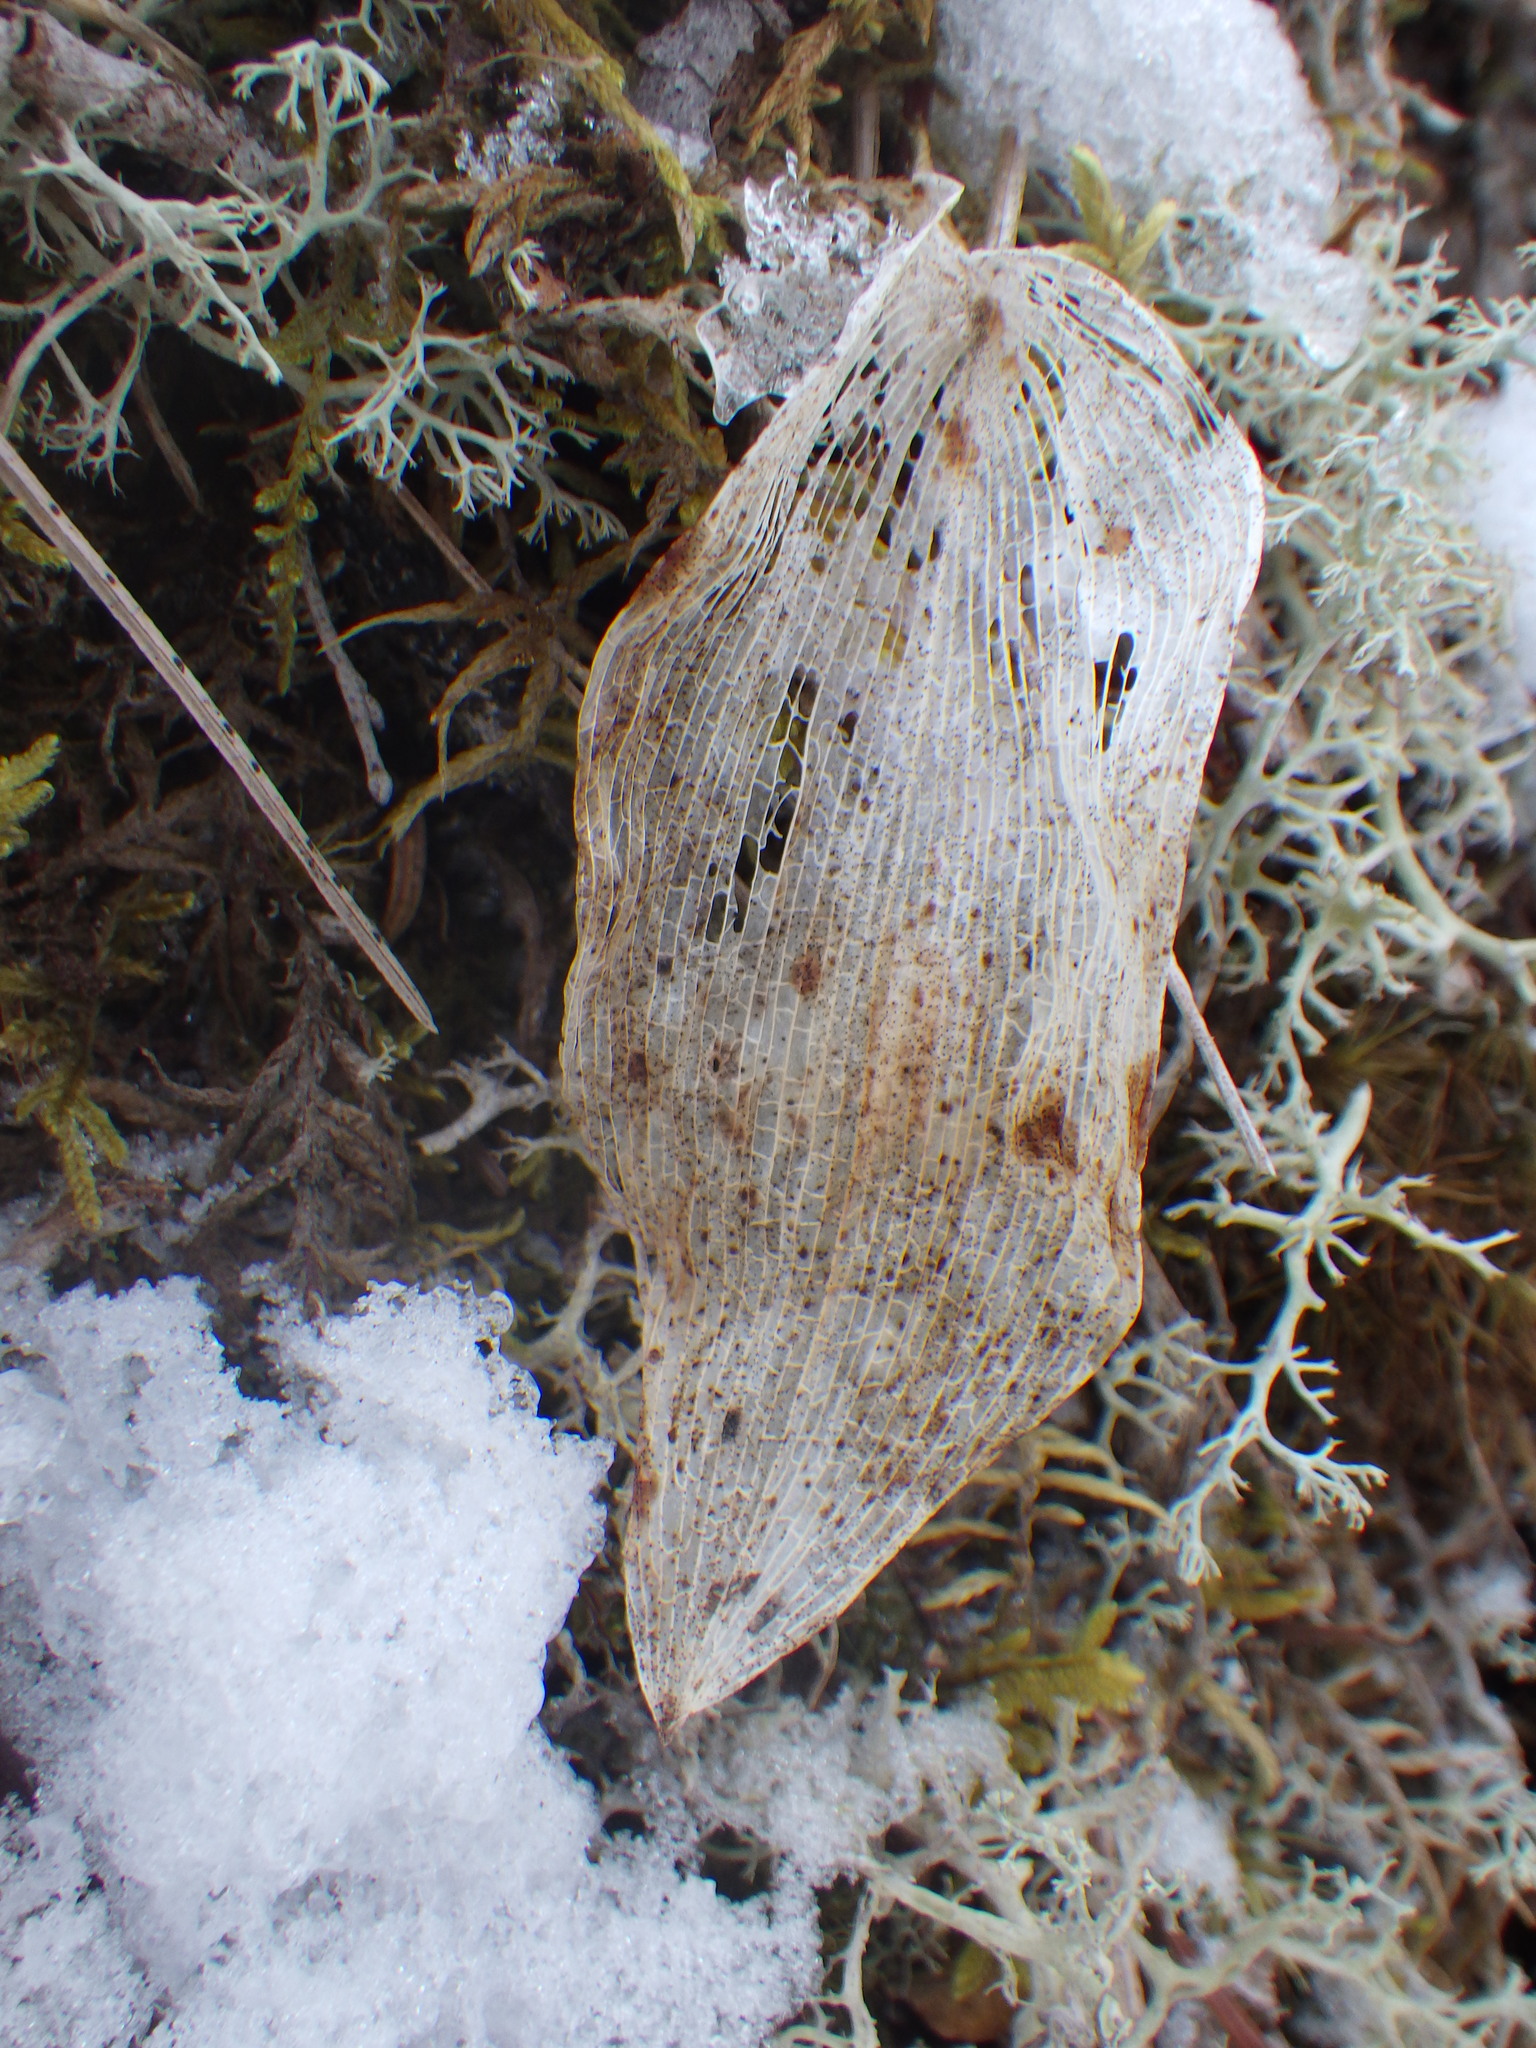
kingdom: Plantae
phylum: Tracheophyta
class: Liliopsida
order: Asparagales
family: Asparagaceae
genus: Maianthemum
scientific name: Maianthemum canadense
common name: False lily-of-the-valley
